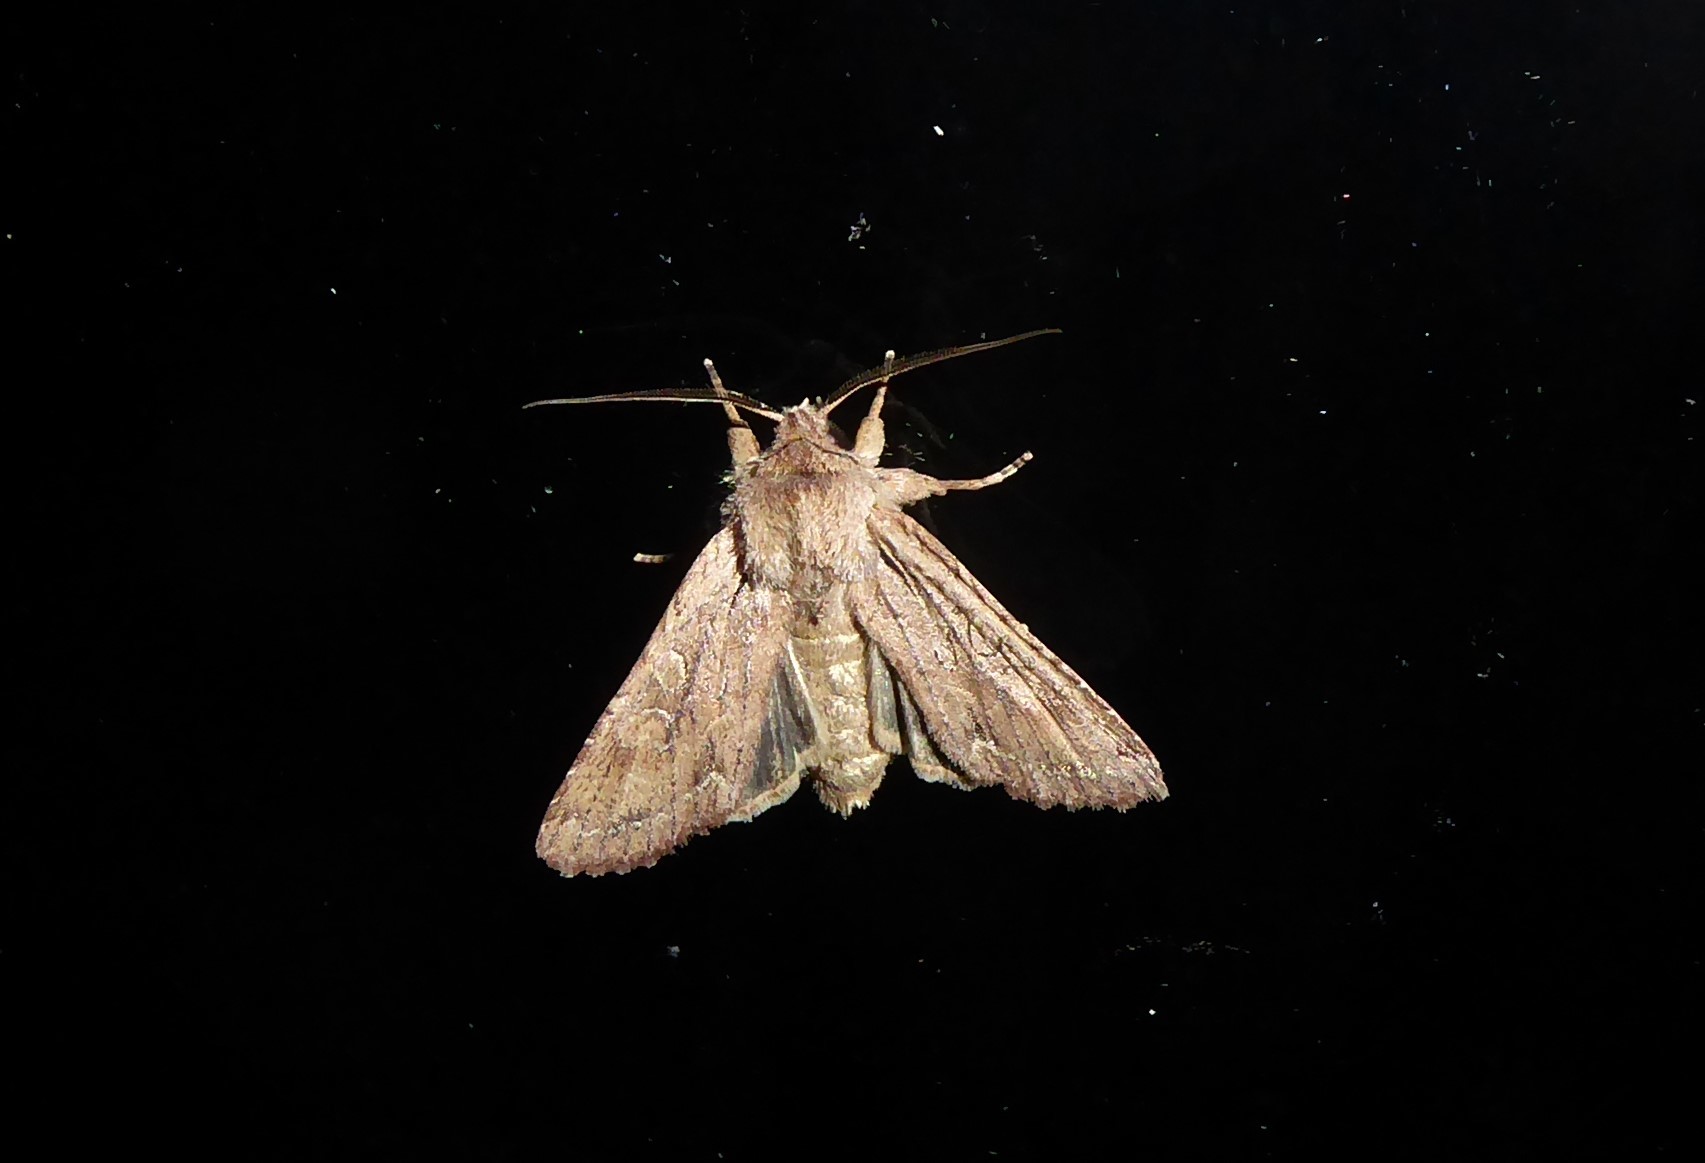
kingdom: Animalia
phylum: Arthropoda
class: Insecta
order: Lepidoptera
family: Noctuidae
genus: Ichneutica
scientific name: Ichneutica
